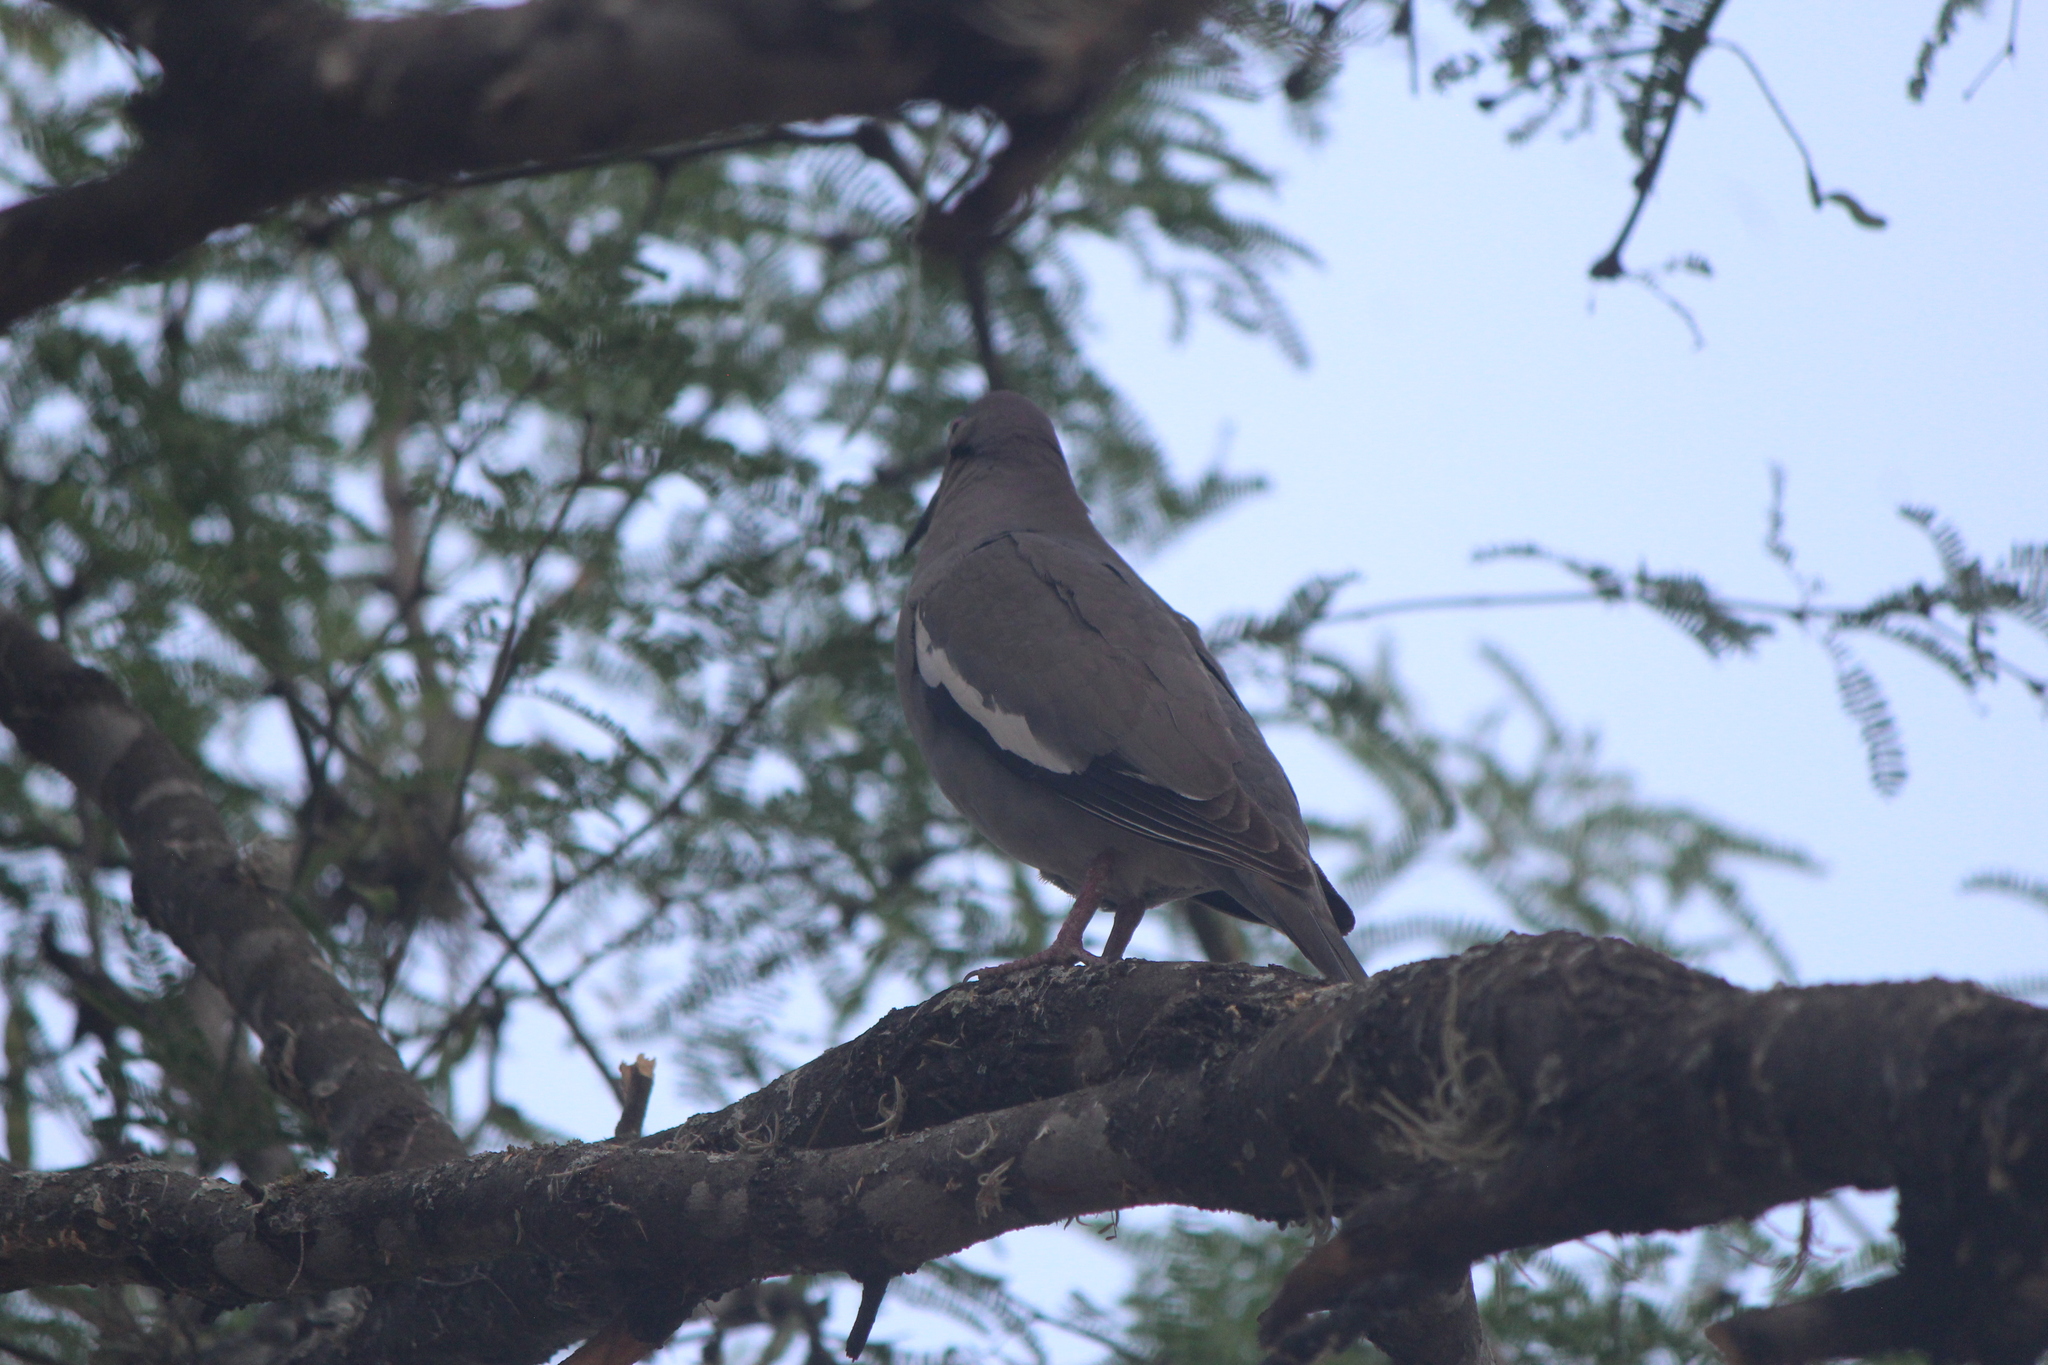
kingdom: Animalia
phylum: Chordata
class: Aves
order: Columbiformes
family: Columbidae
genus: Zenaida
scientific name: Zenaida asiatica
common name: White-winged dove
